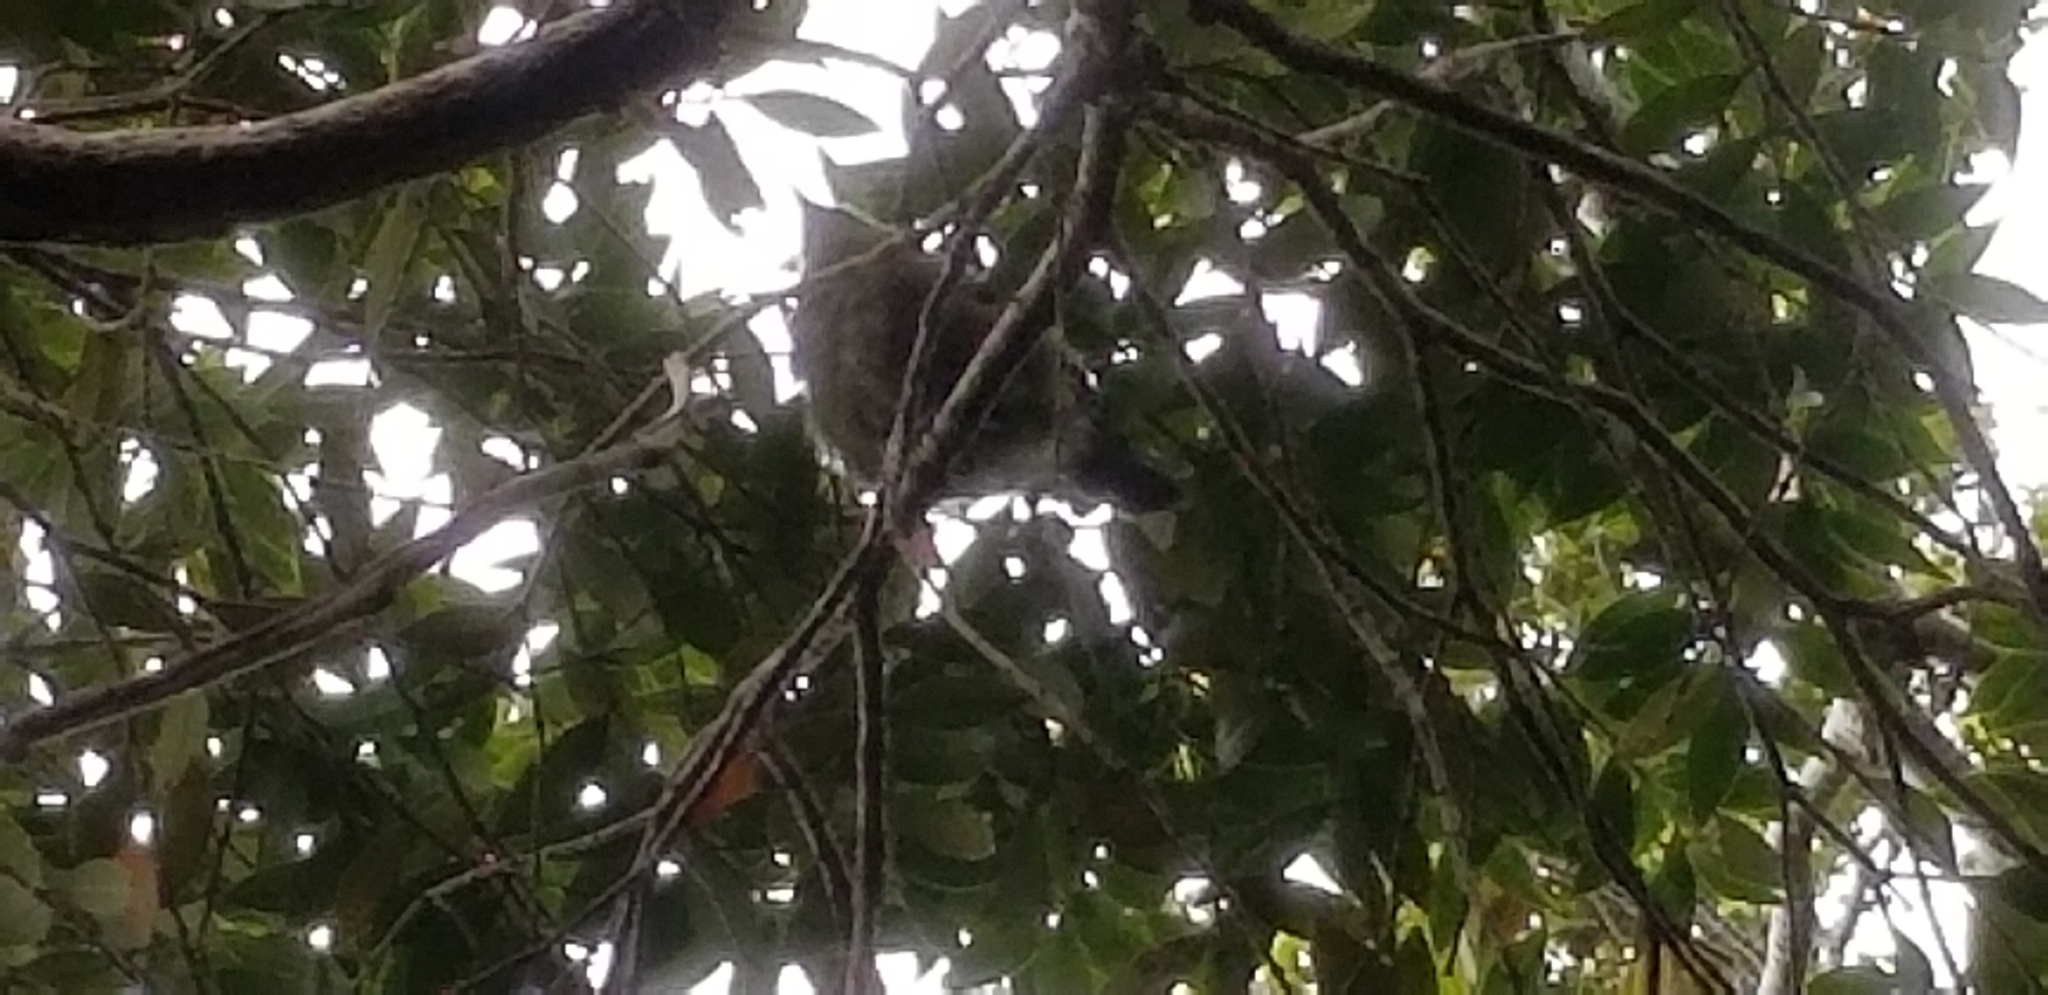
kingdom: Animalia
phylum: Chordata
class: Aves
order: Passeriformes
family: Meliphagidae
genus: Anthornis
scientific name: Anthornis melanura
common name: New zealand bellbird
